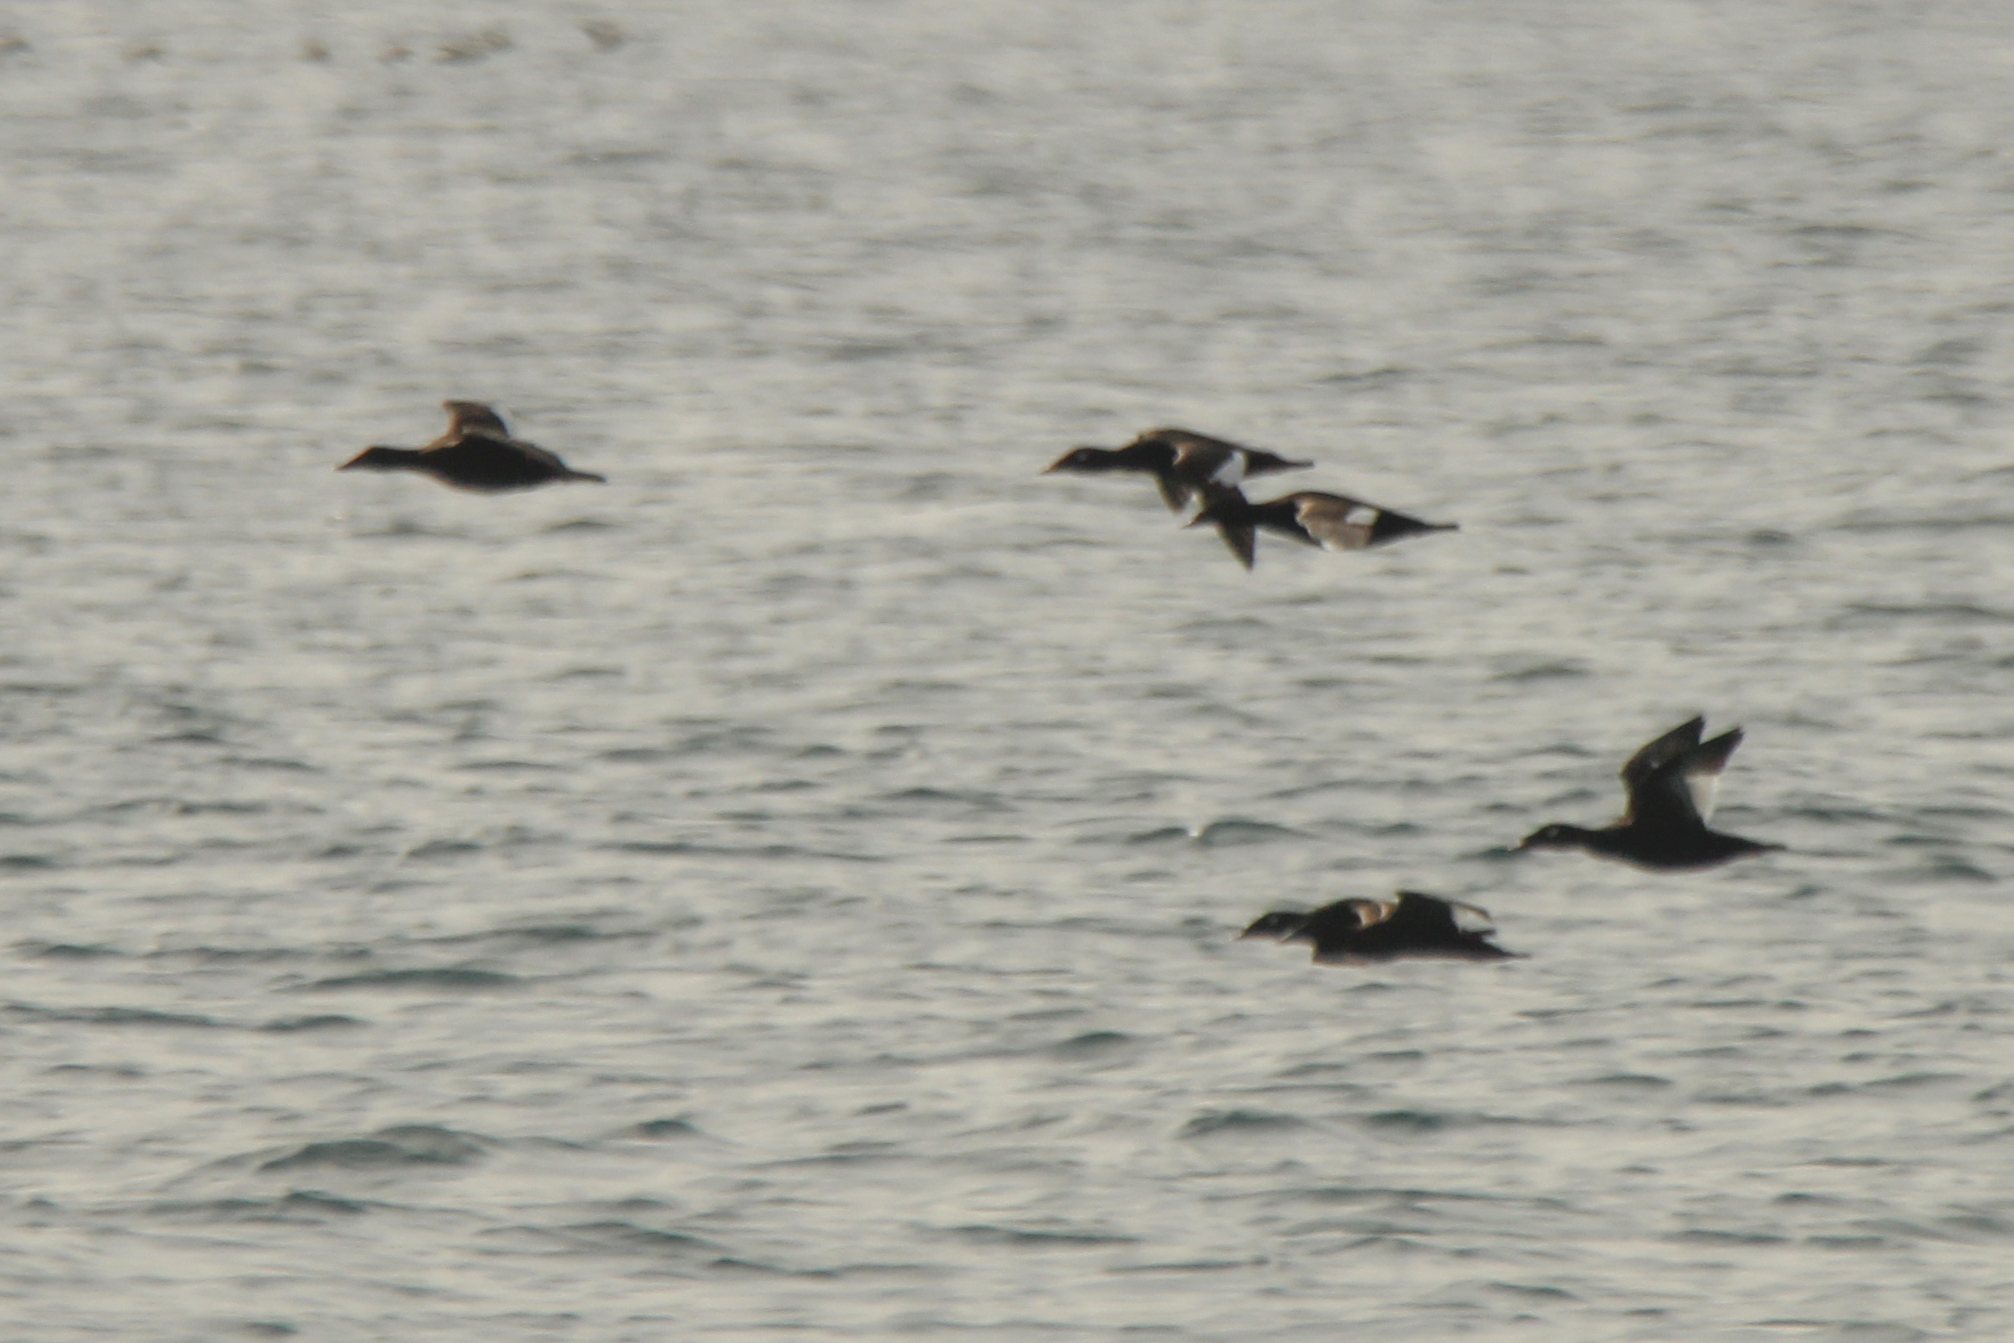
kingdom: Animalia
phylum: Chordata
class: Aves
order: Anseriformes
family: Anatidae
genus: Melanitta
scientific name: Melanitta stejnegeri
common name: Stejneger's scoter
